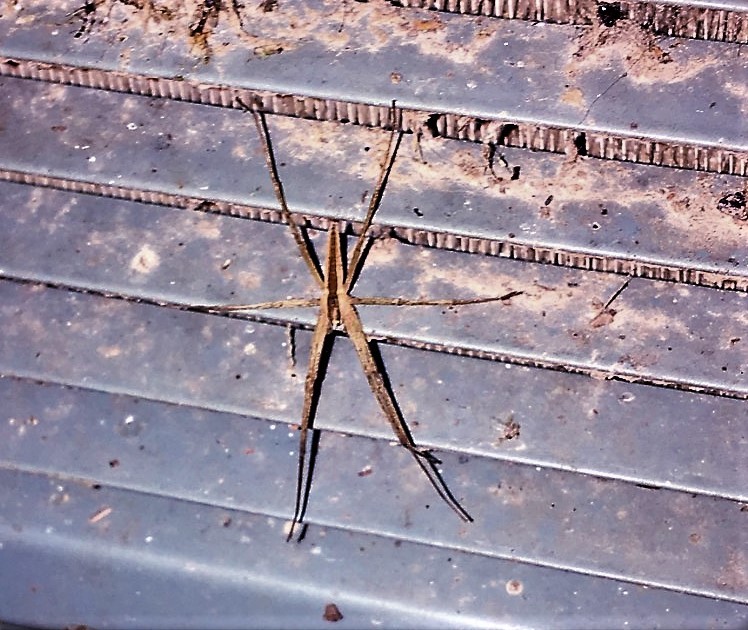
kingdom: Animalia
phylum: Arthropoda
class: Arachnida
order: Araneae
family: Pisauridae
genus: Pisaurina
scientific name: Pisaurina dubia
